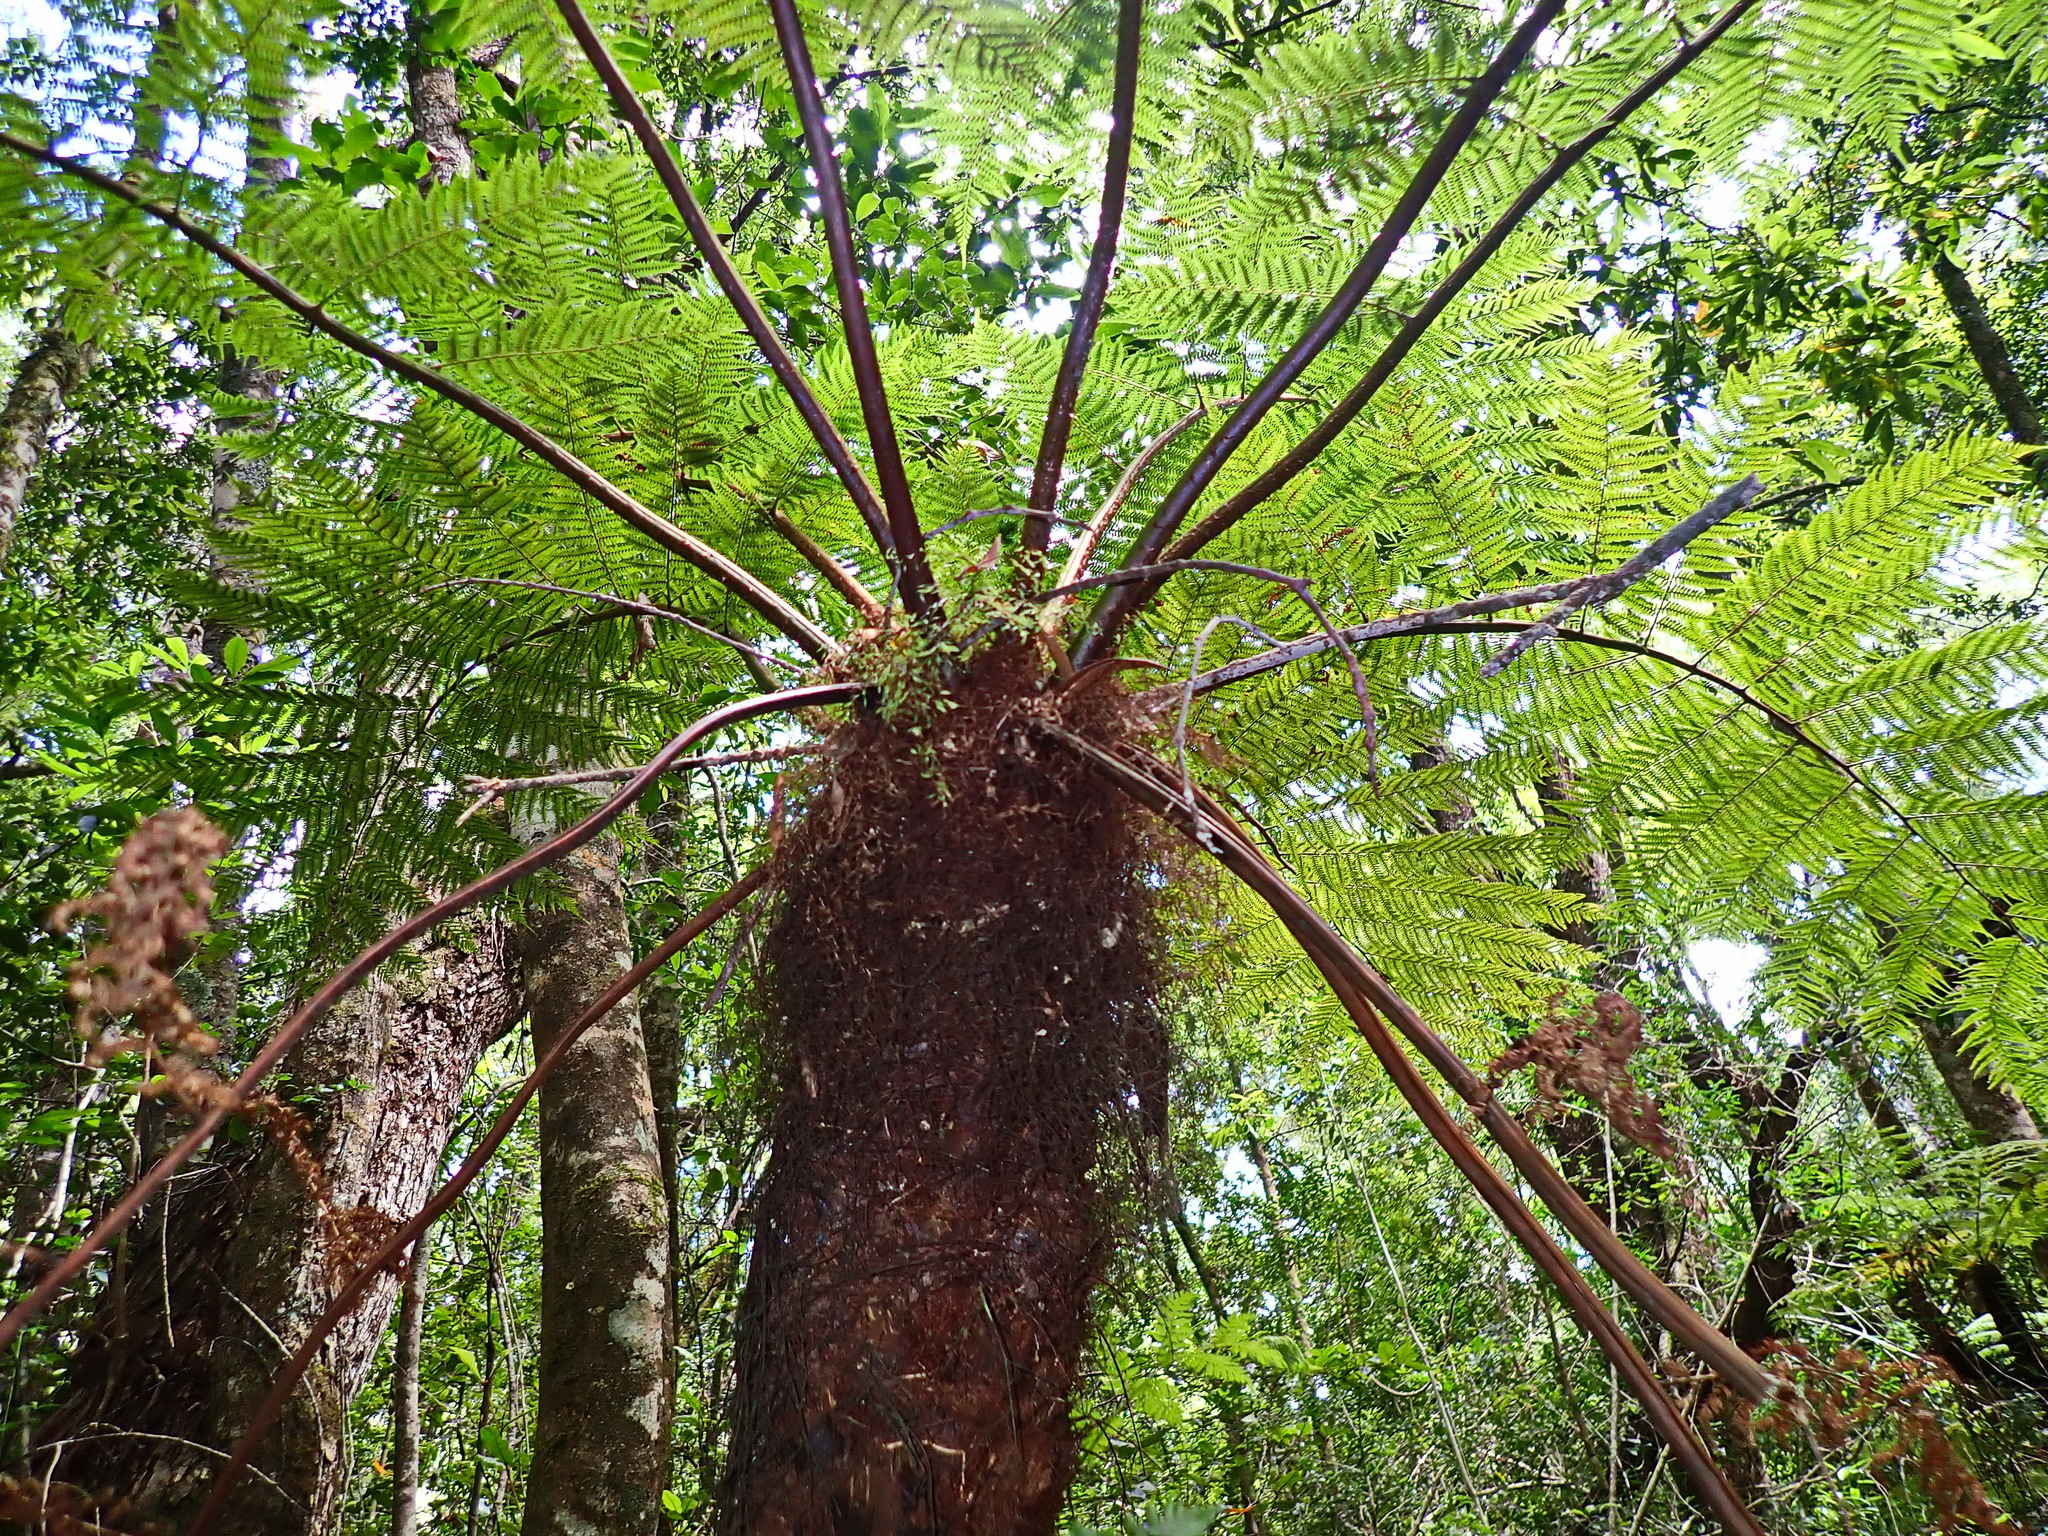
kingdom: Plantae
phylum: Tracheophyta
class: Polypodiopsida
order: Cyatheales
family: Cyatheaceae
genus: Gymnosphaera
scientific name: Gymnosphaera capensis
